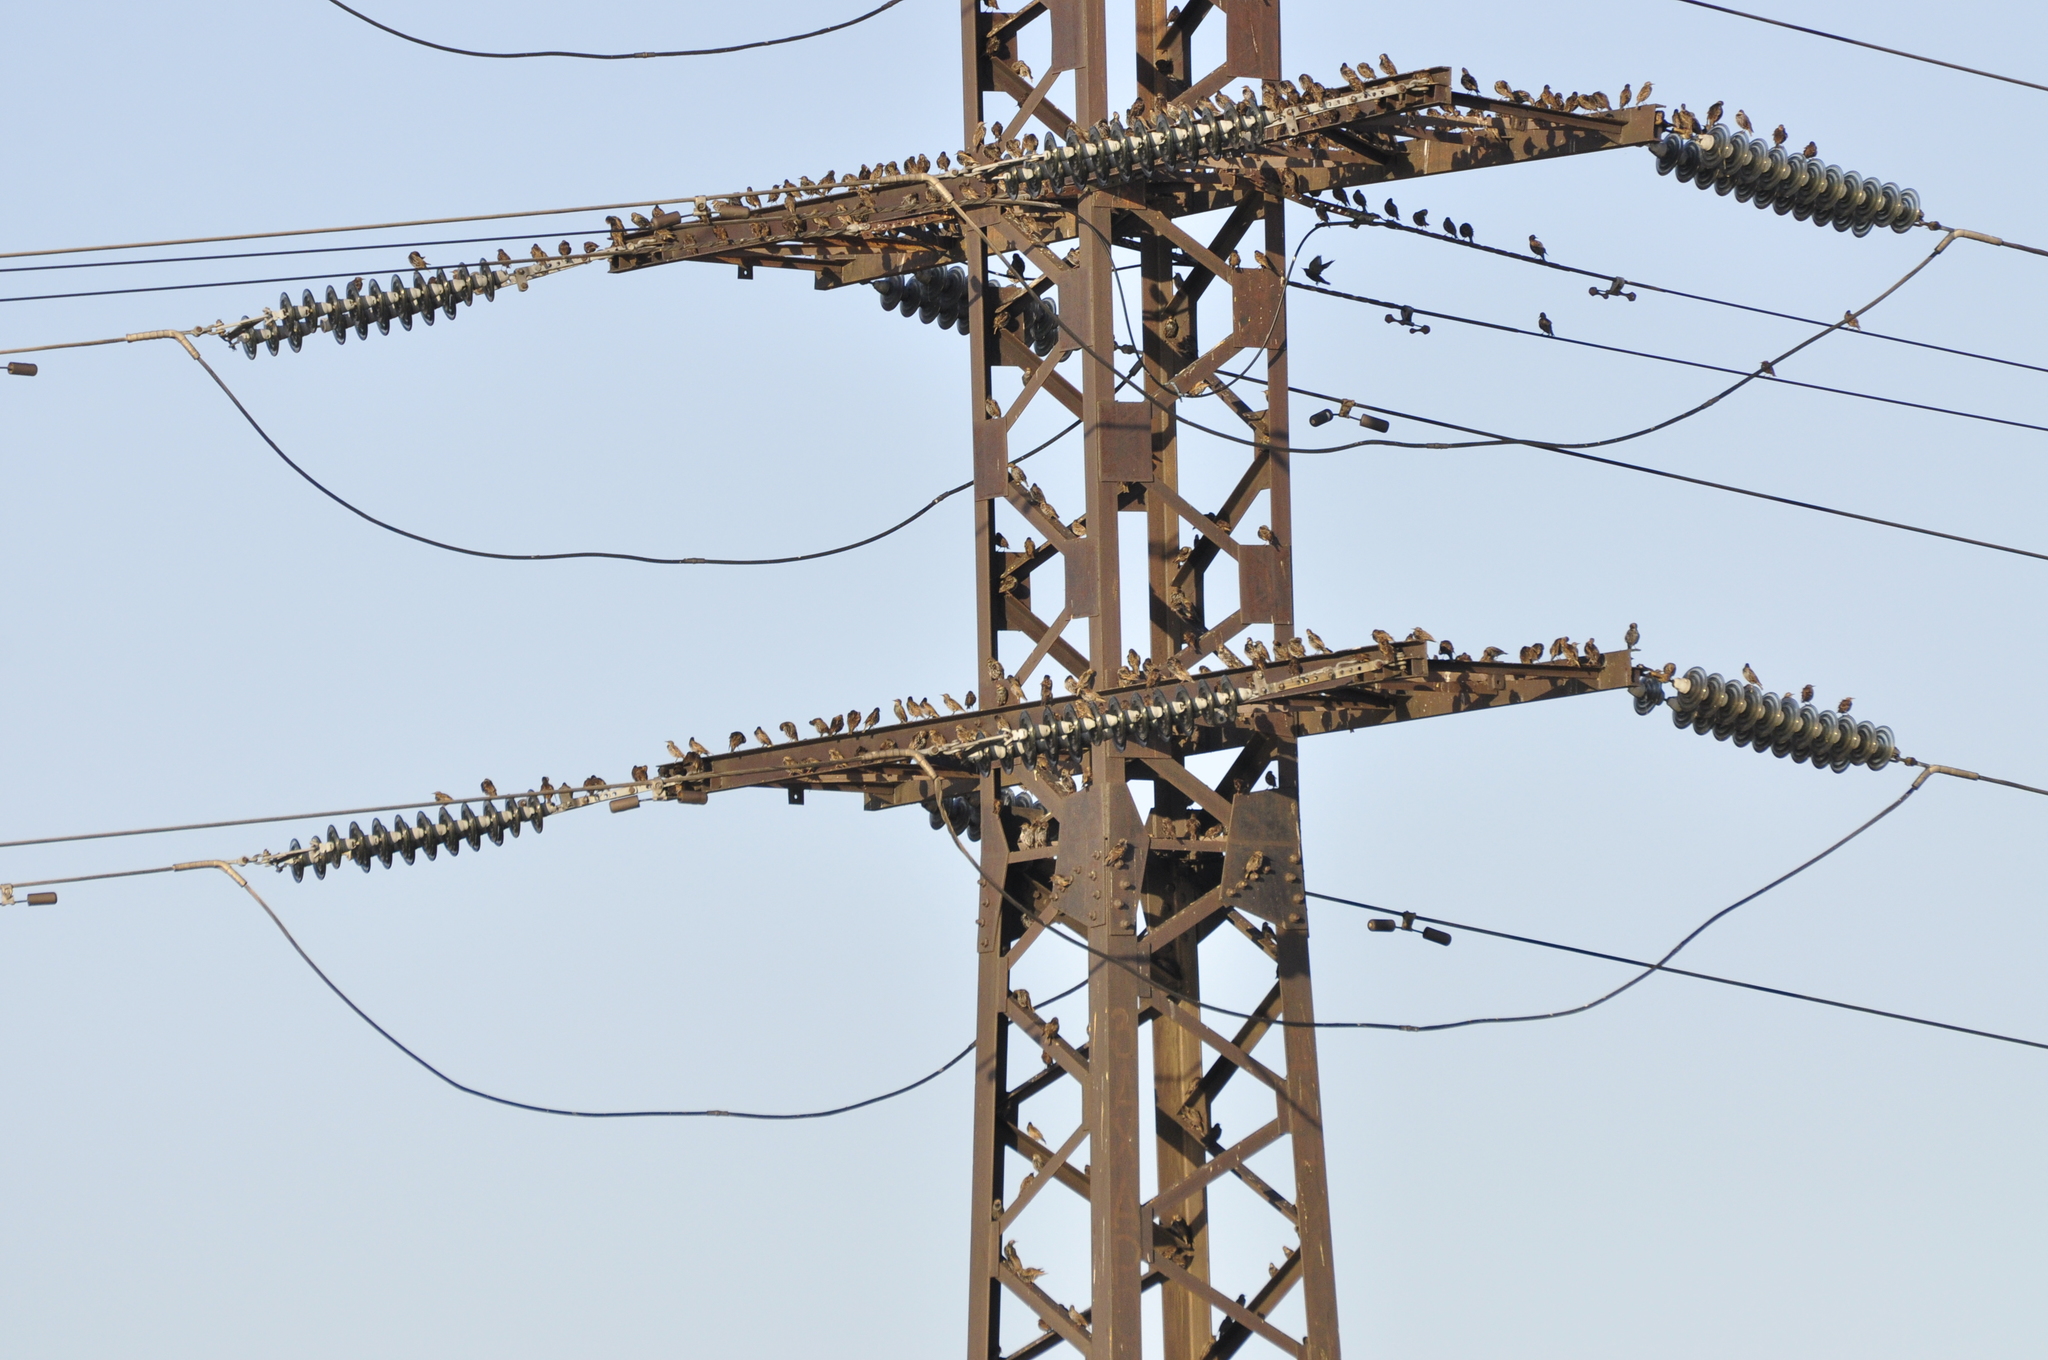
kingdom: Animalia
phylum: Chordata
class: Aves
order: Passeriformes
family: Sturnidae
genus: Sturnus
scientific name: Sturnus vulgaris
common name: Common starling
